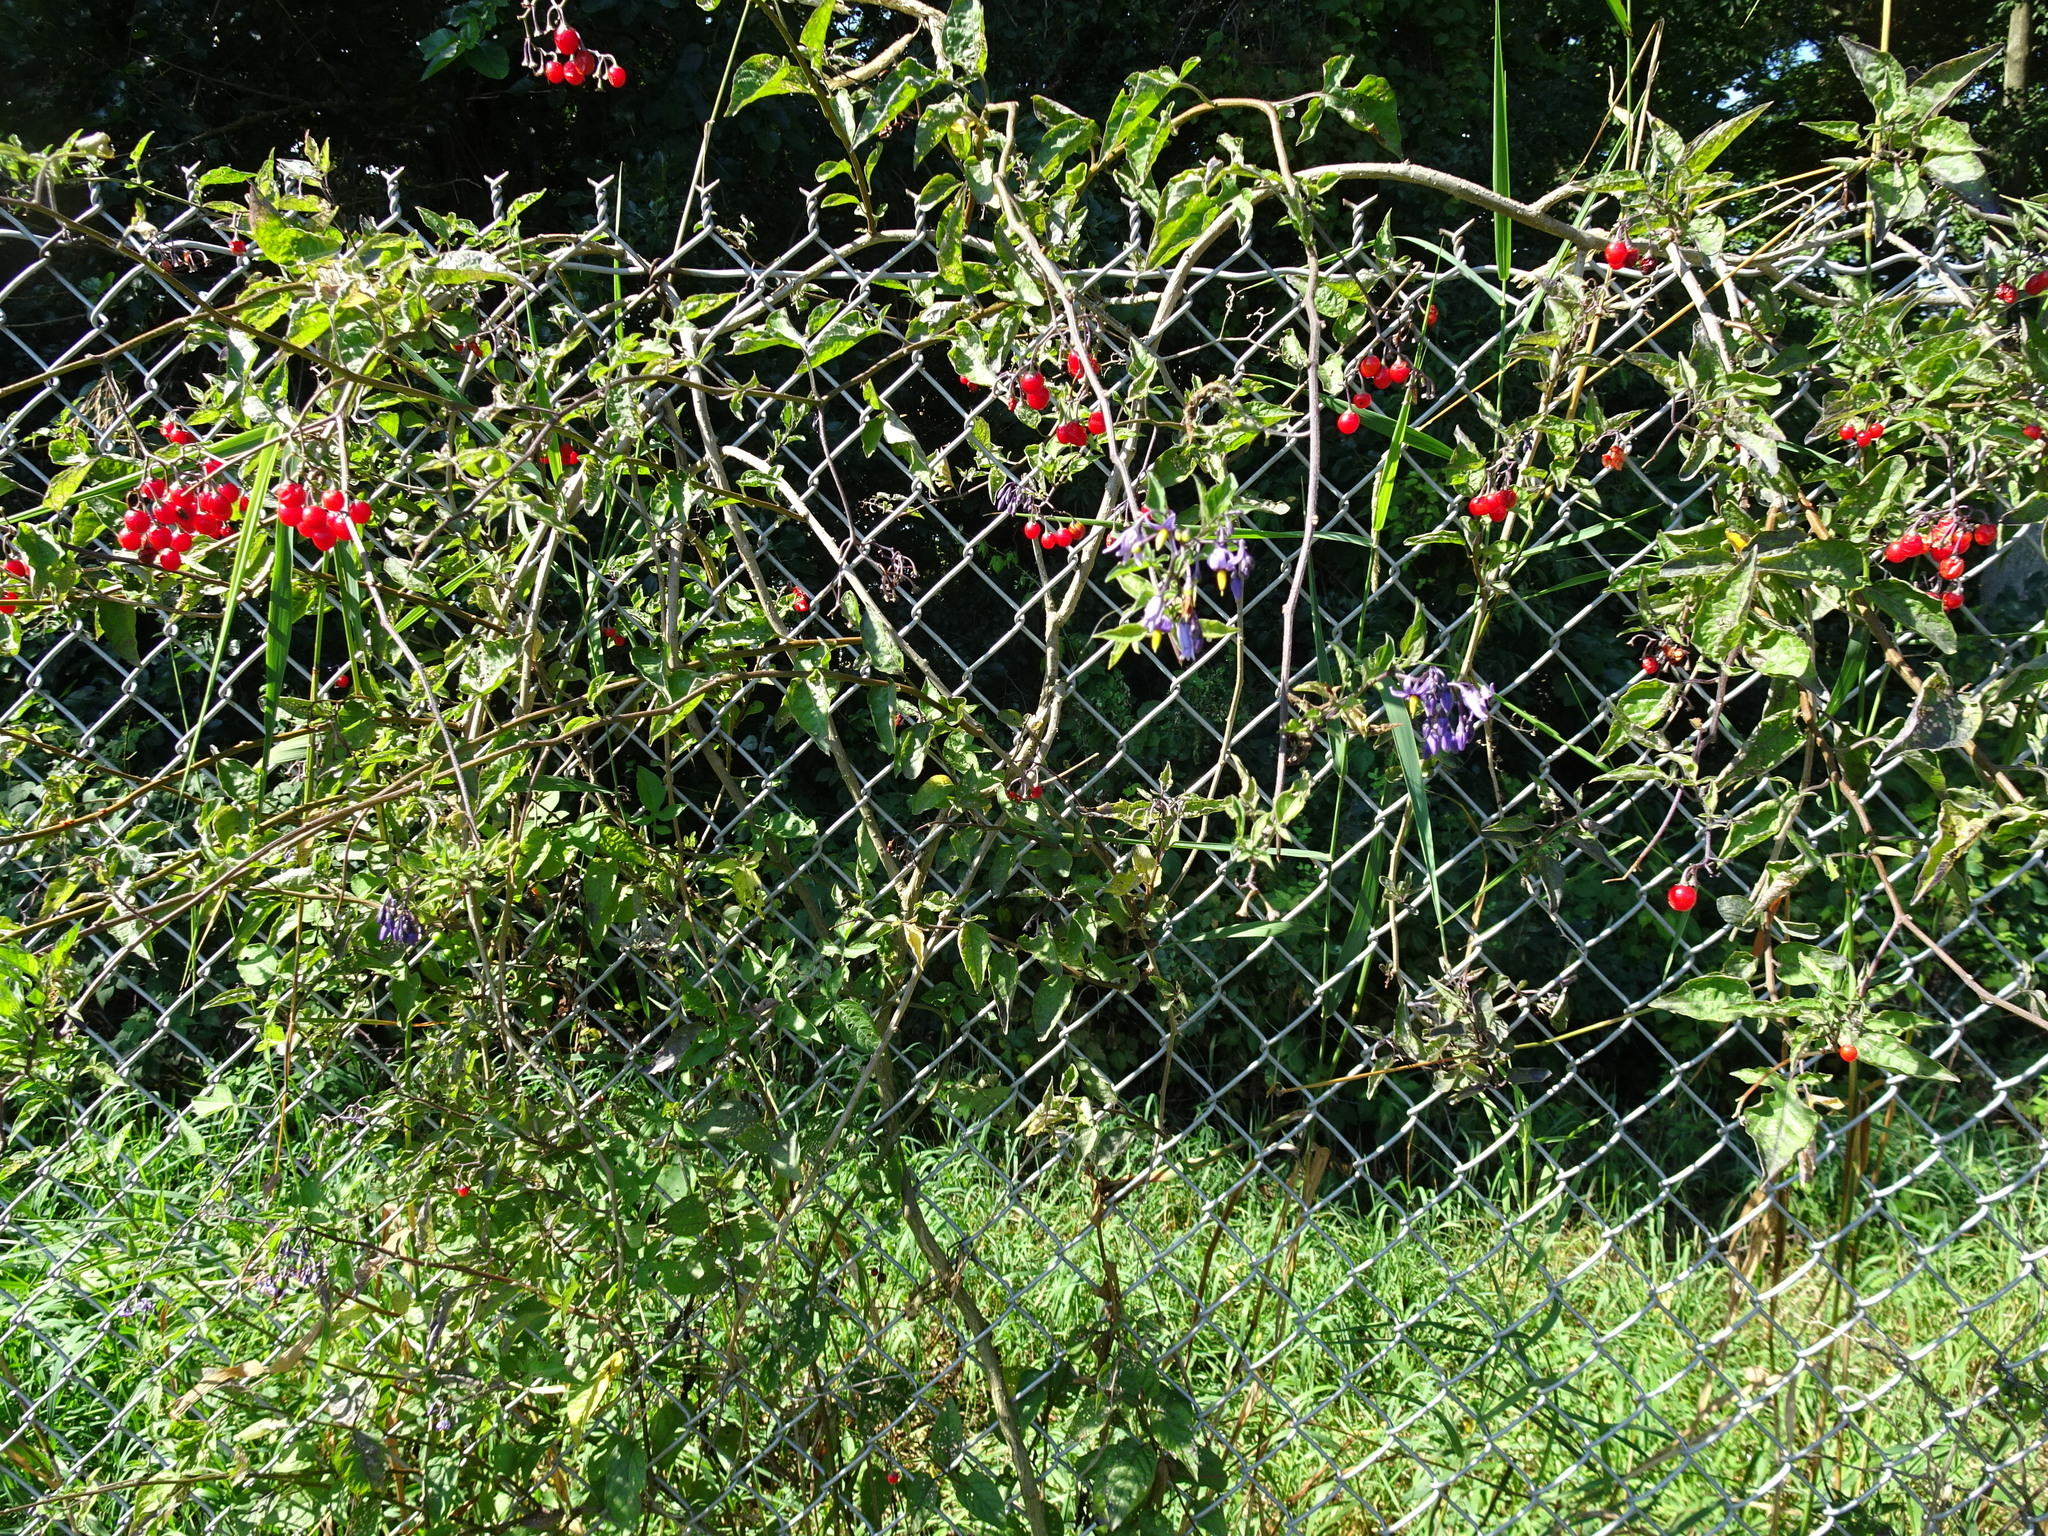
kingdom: Plantae
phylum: Tracheophyta
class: Magnoliopsida
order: Solanales
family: Solanaceae
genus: Solanum
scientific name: Solanum dulcamara
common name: Climbing nightshade
